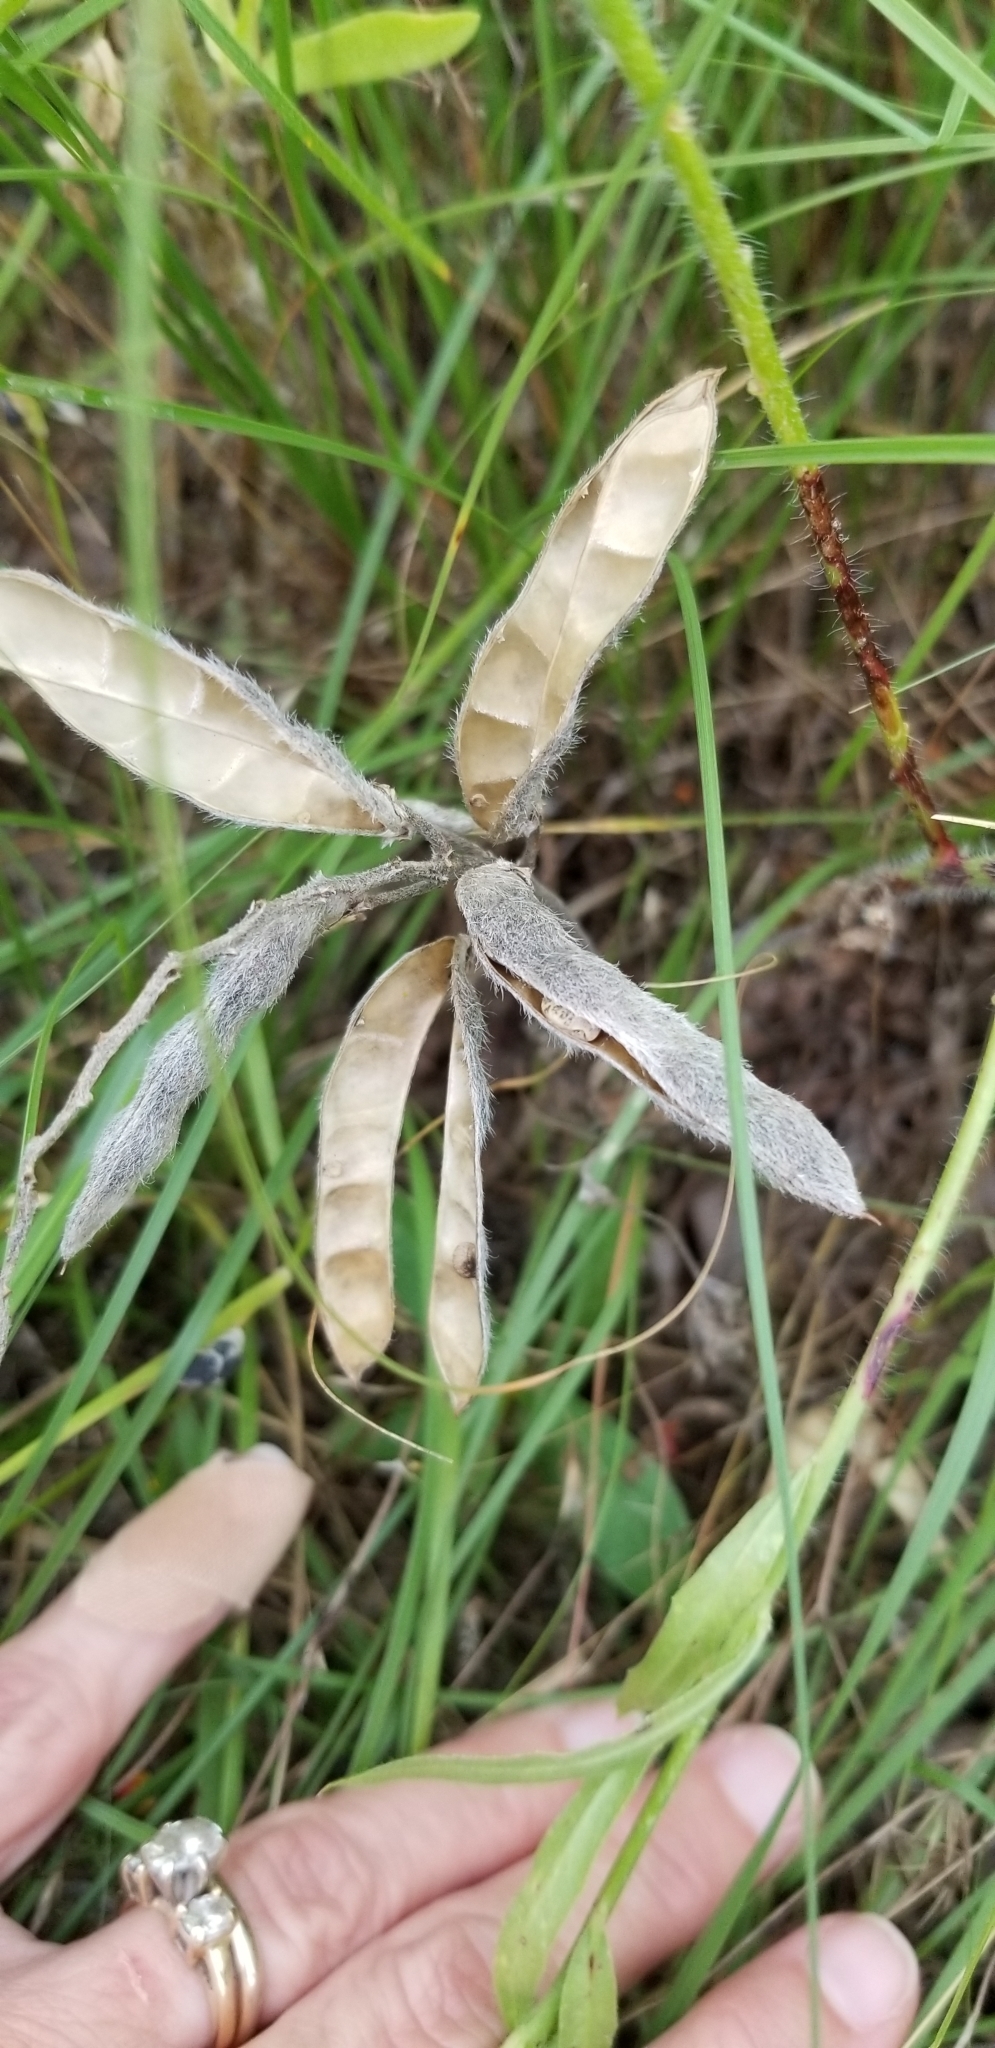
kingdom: Plantae
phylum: Tracheophyta
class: Magnoliopsida
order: Fabales
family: Fabaceae
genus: Lupinus
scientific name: Lupinus texensis
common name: Texas bluebonnet
